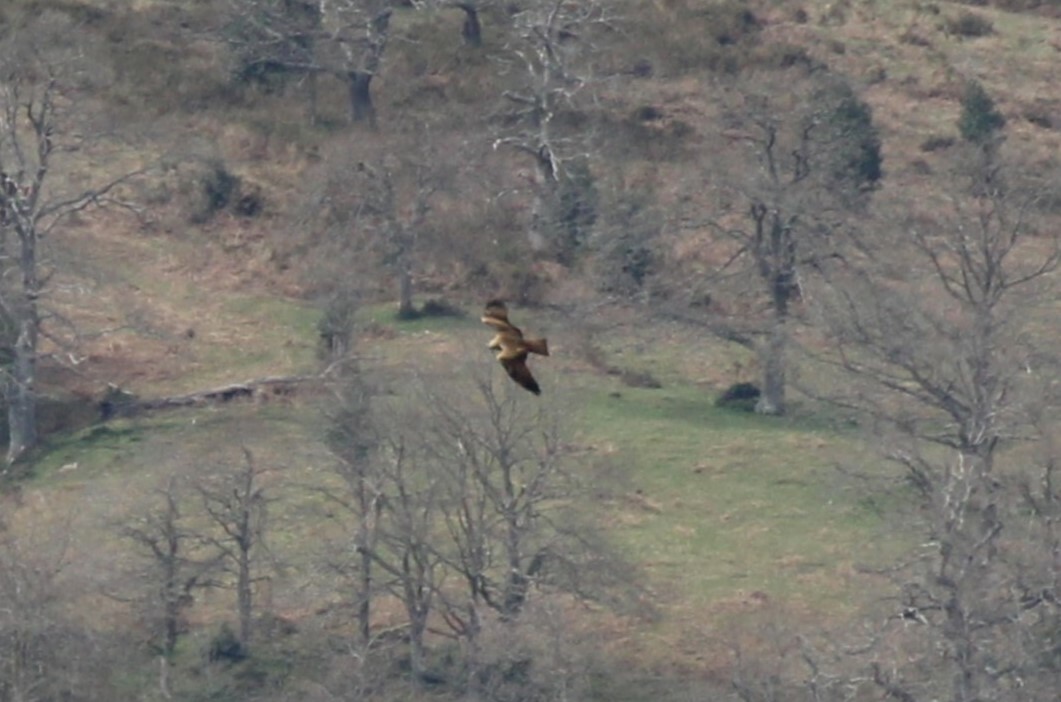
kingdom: Animalia
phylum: Chordata
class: Aves
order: Accipitriformes
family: Accipitridae
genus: Milvus
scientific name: Milvus migrans
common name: Black kite
